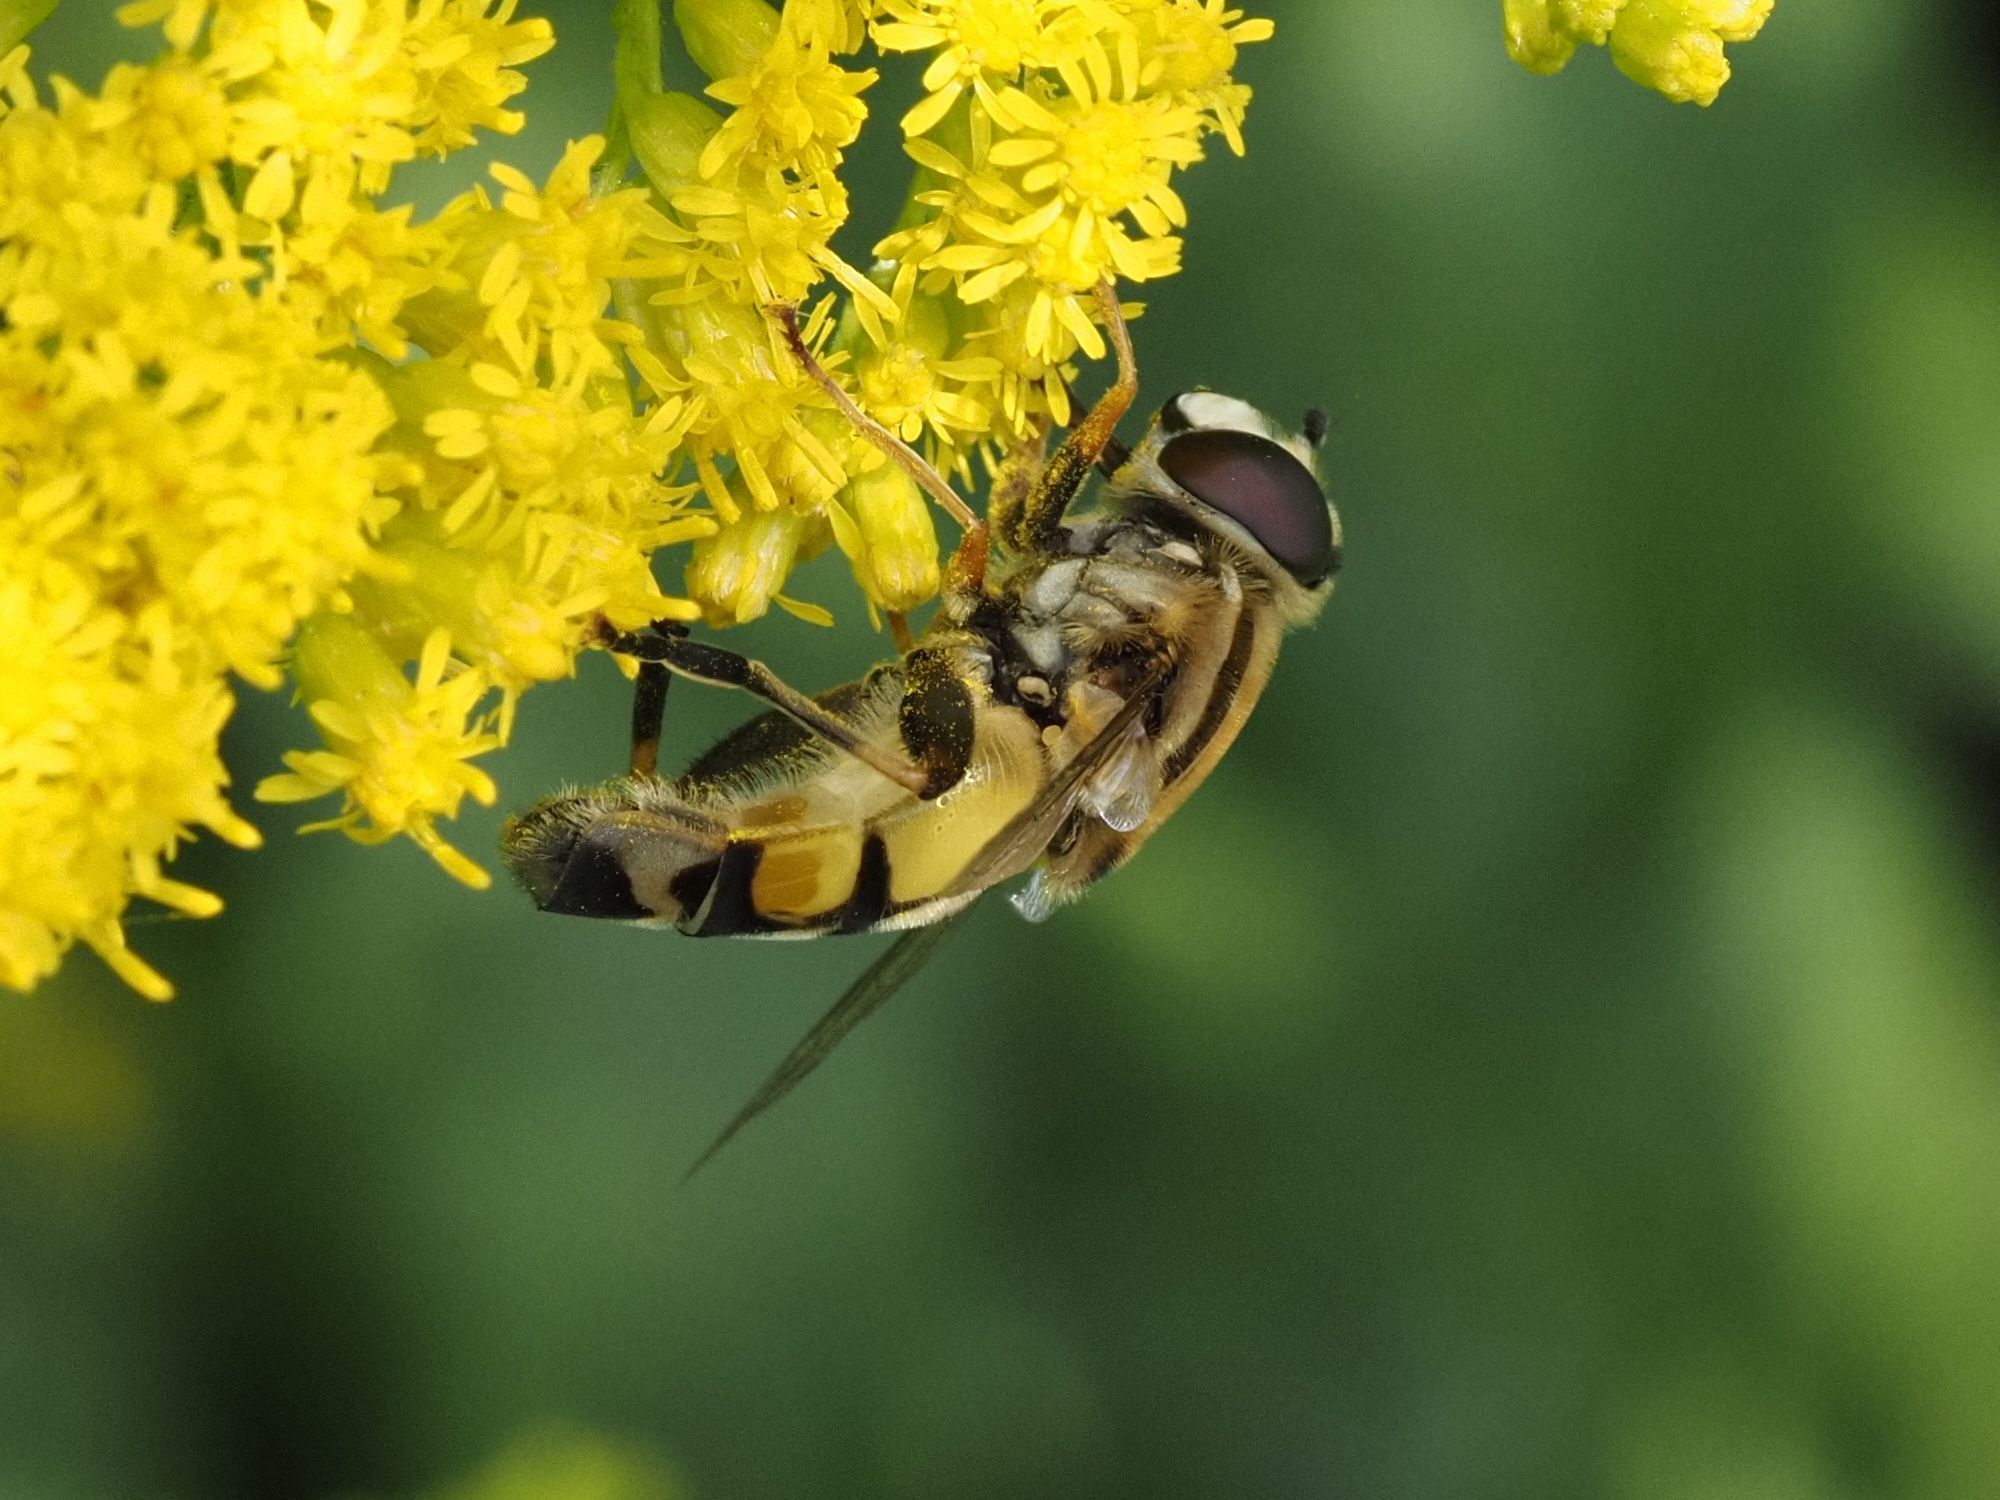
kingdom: Animalia
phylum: Arthropoda
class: Insecta
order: Diptera
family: Syrphidae
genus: Helophilus
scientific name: Helophilus trivittatus
